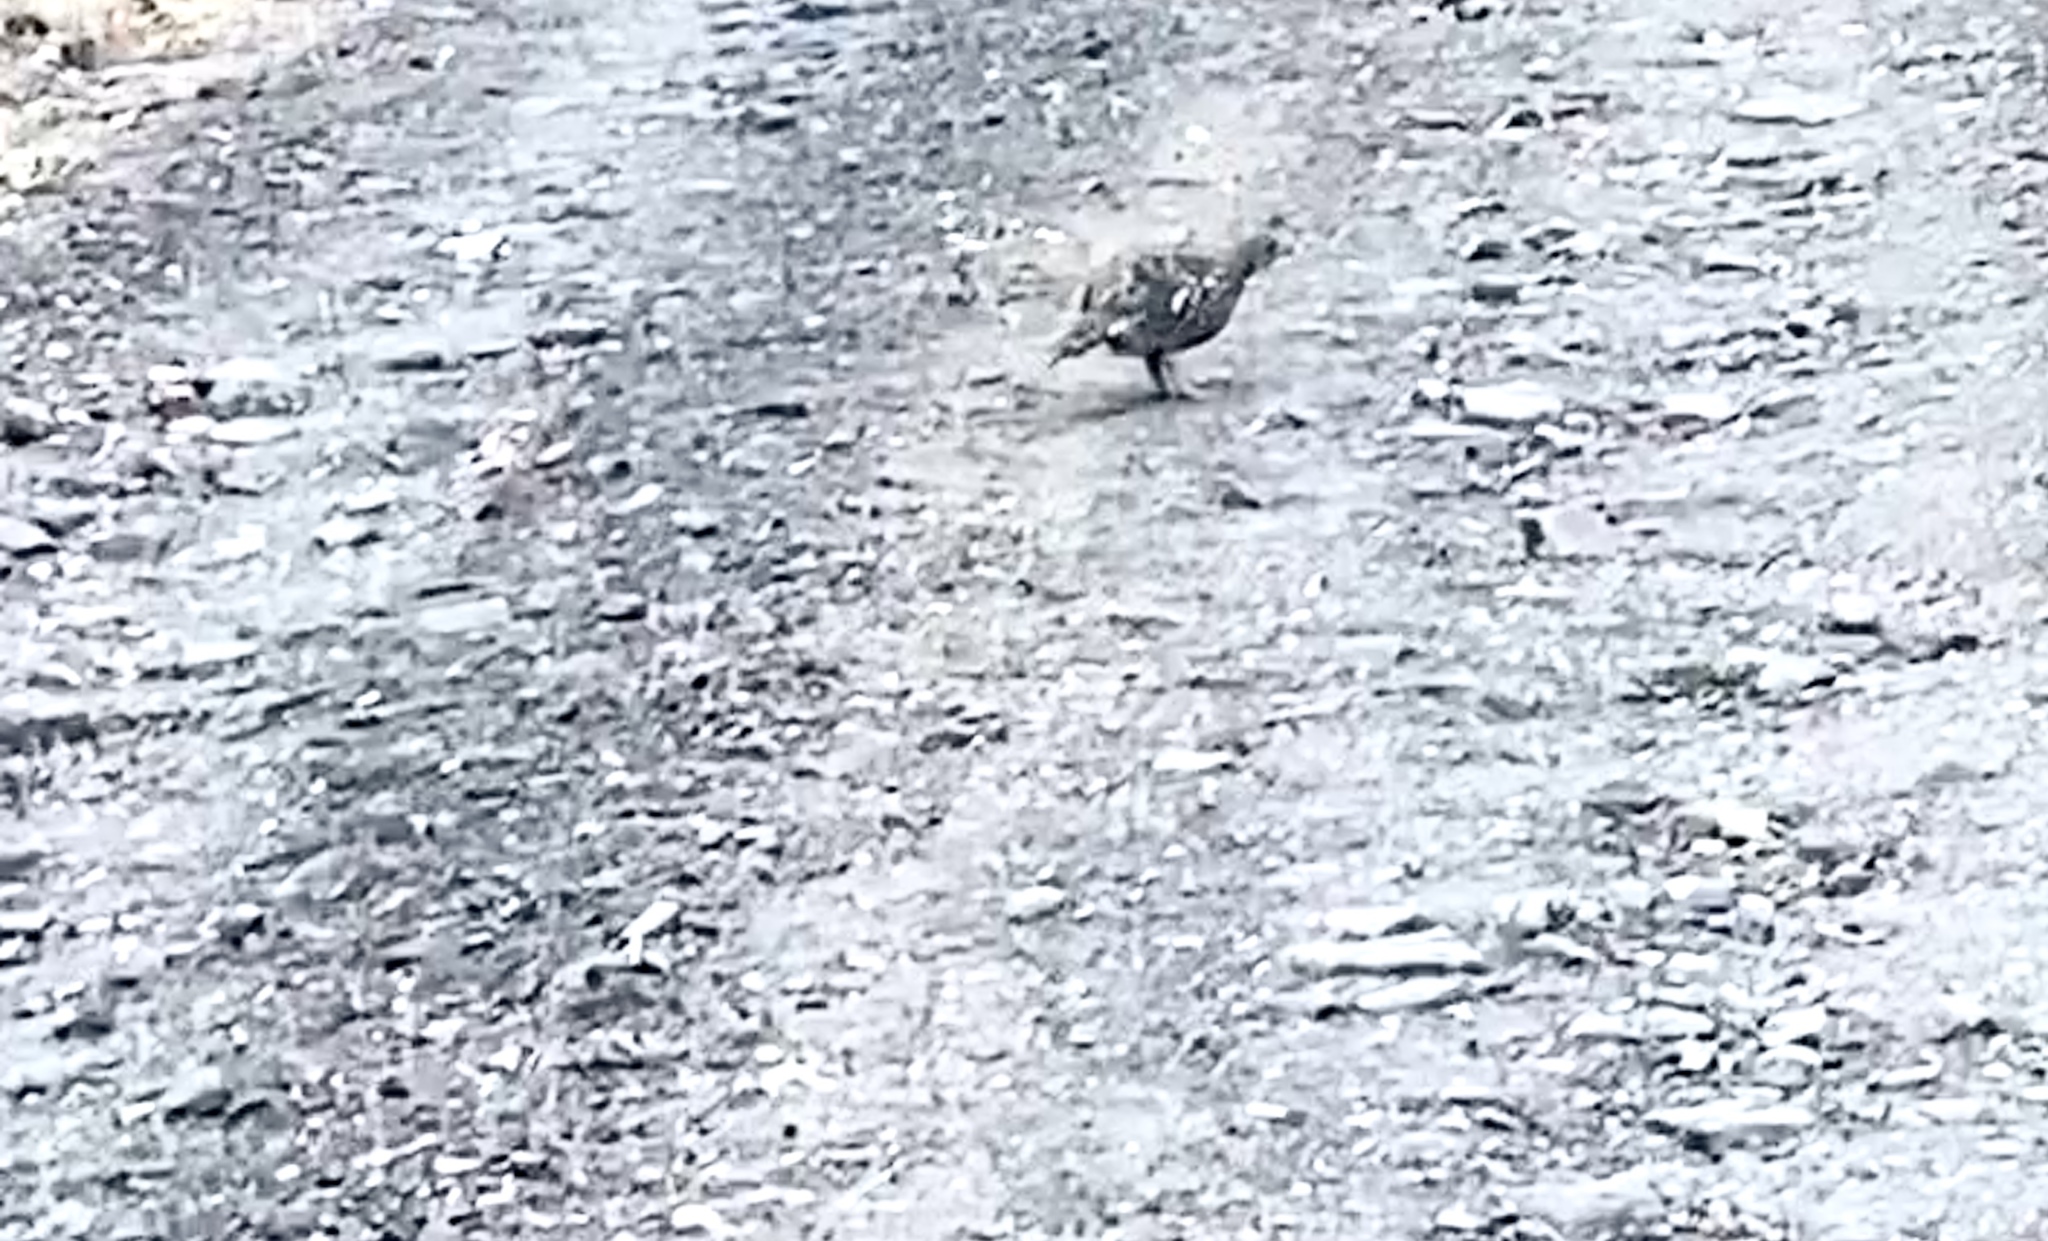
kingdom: Animalia
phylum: Chordata
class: Aves
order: Galliformes
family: Phasianidae
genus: Dendragapus
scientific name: Dendragapus fuliginosus
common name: Sooty grouse
